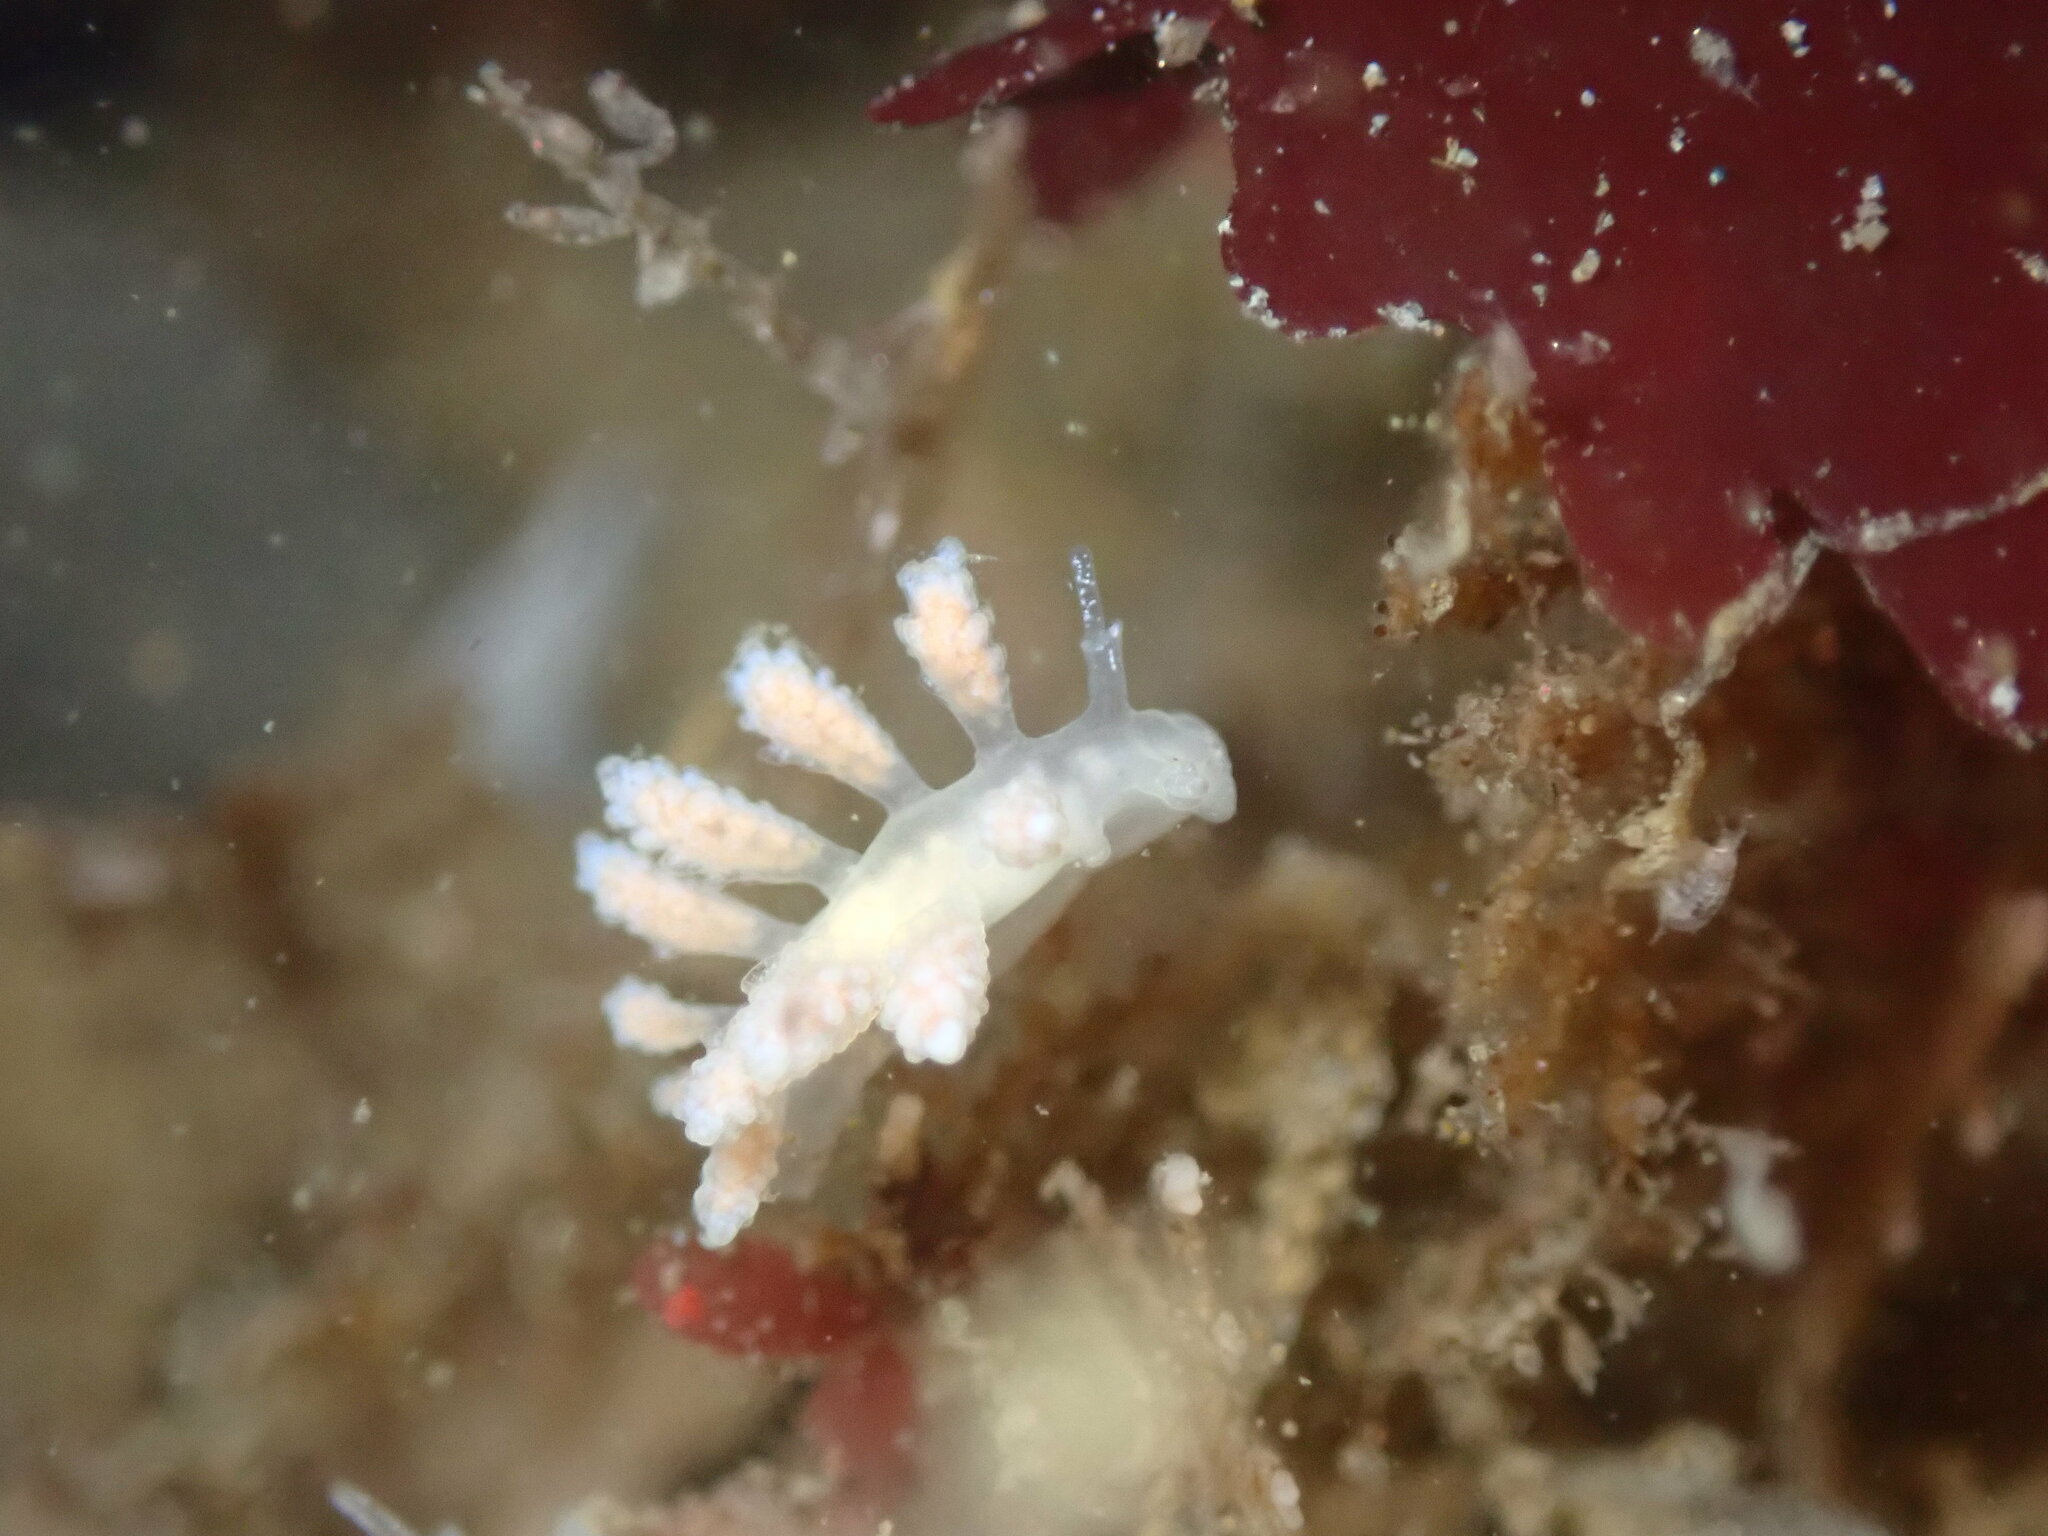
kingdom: Animalia
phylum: Mollusca
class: Gastropoda
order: Nudibranchia
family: Dotidae
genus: Doto
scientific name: Doto amyra
